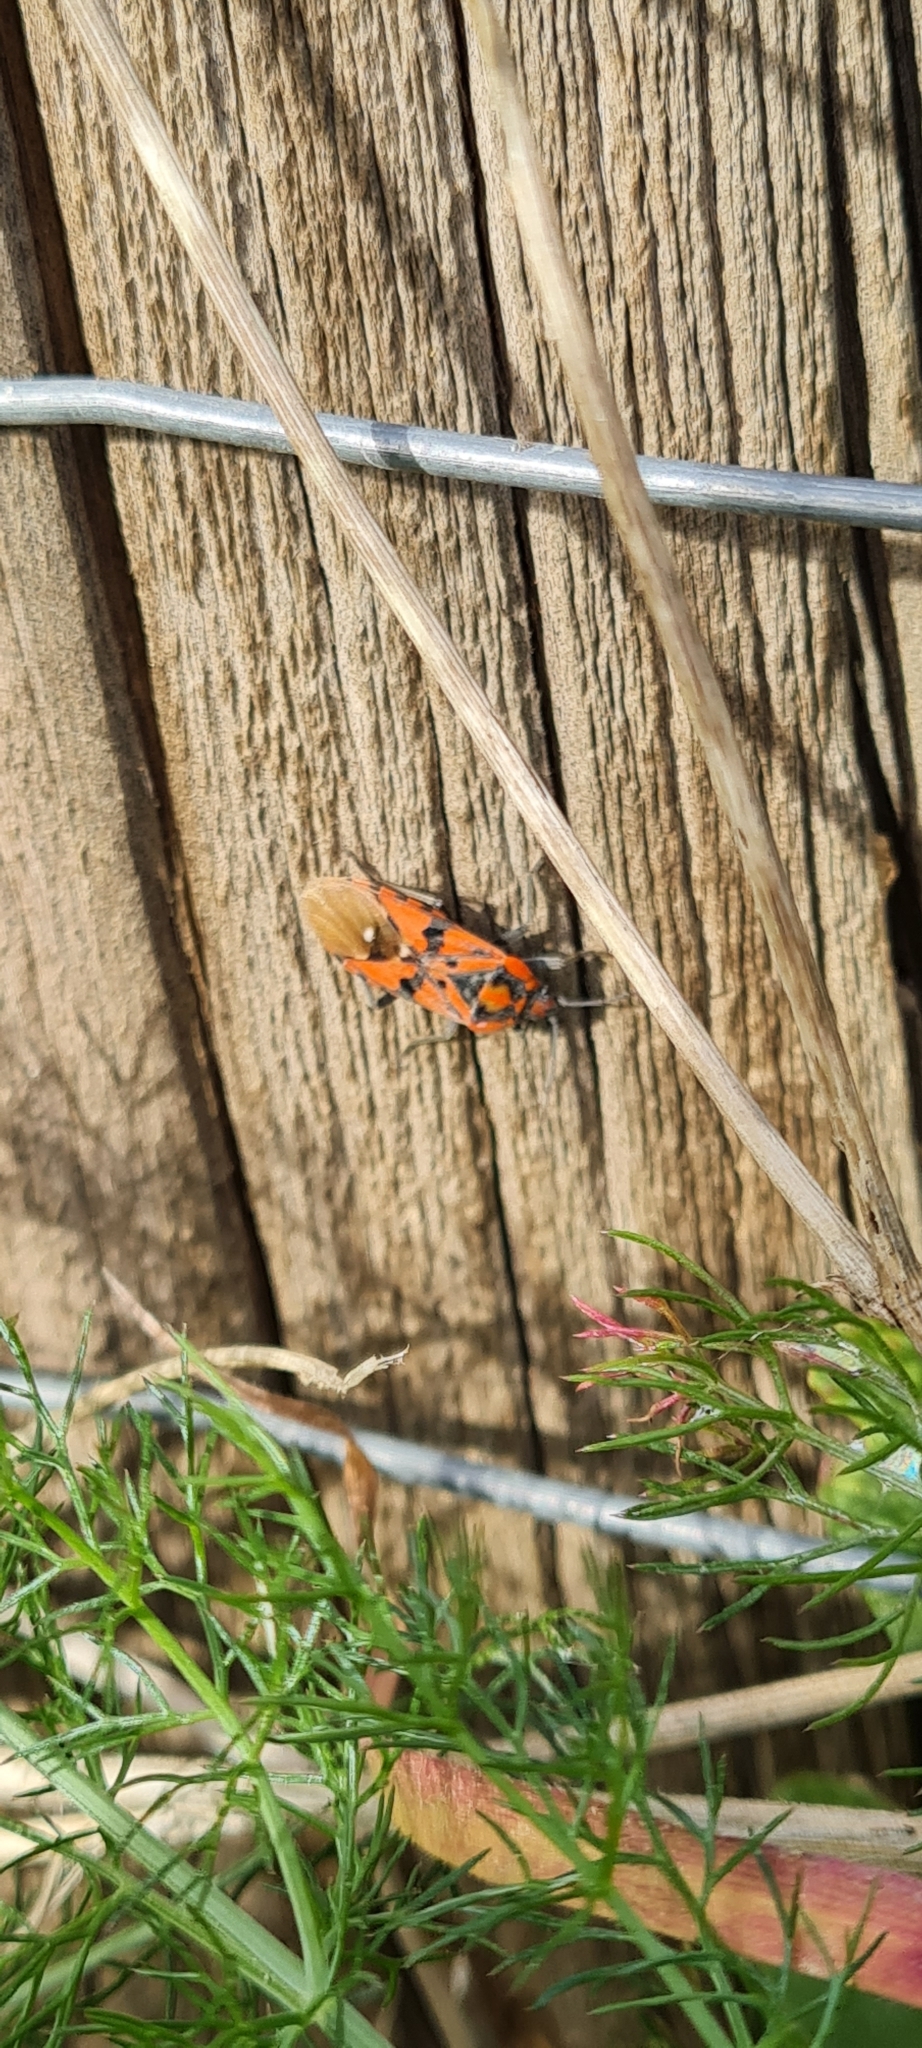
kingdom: Animalia
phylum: Arthropoda
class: Insecta
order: Hemiptera
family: Lygaeidae
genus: Spilostethus
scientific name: Spilostethus pandurus
